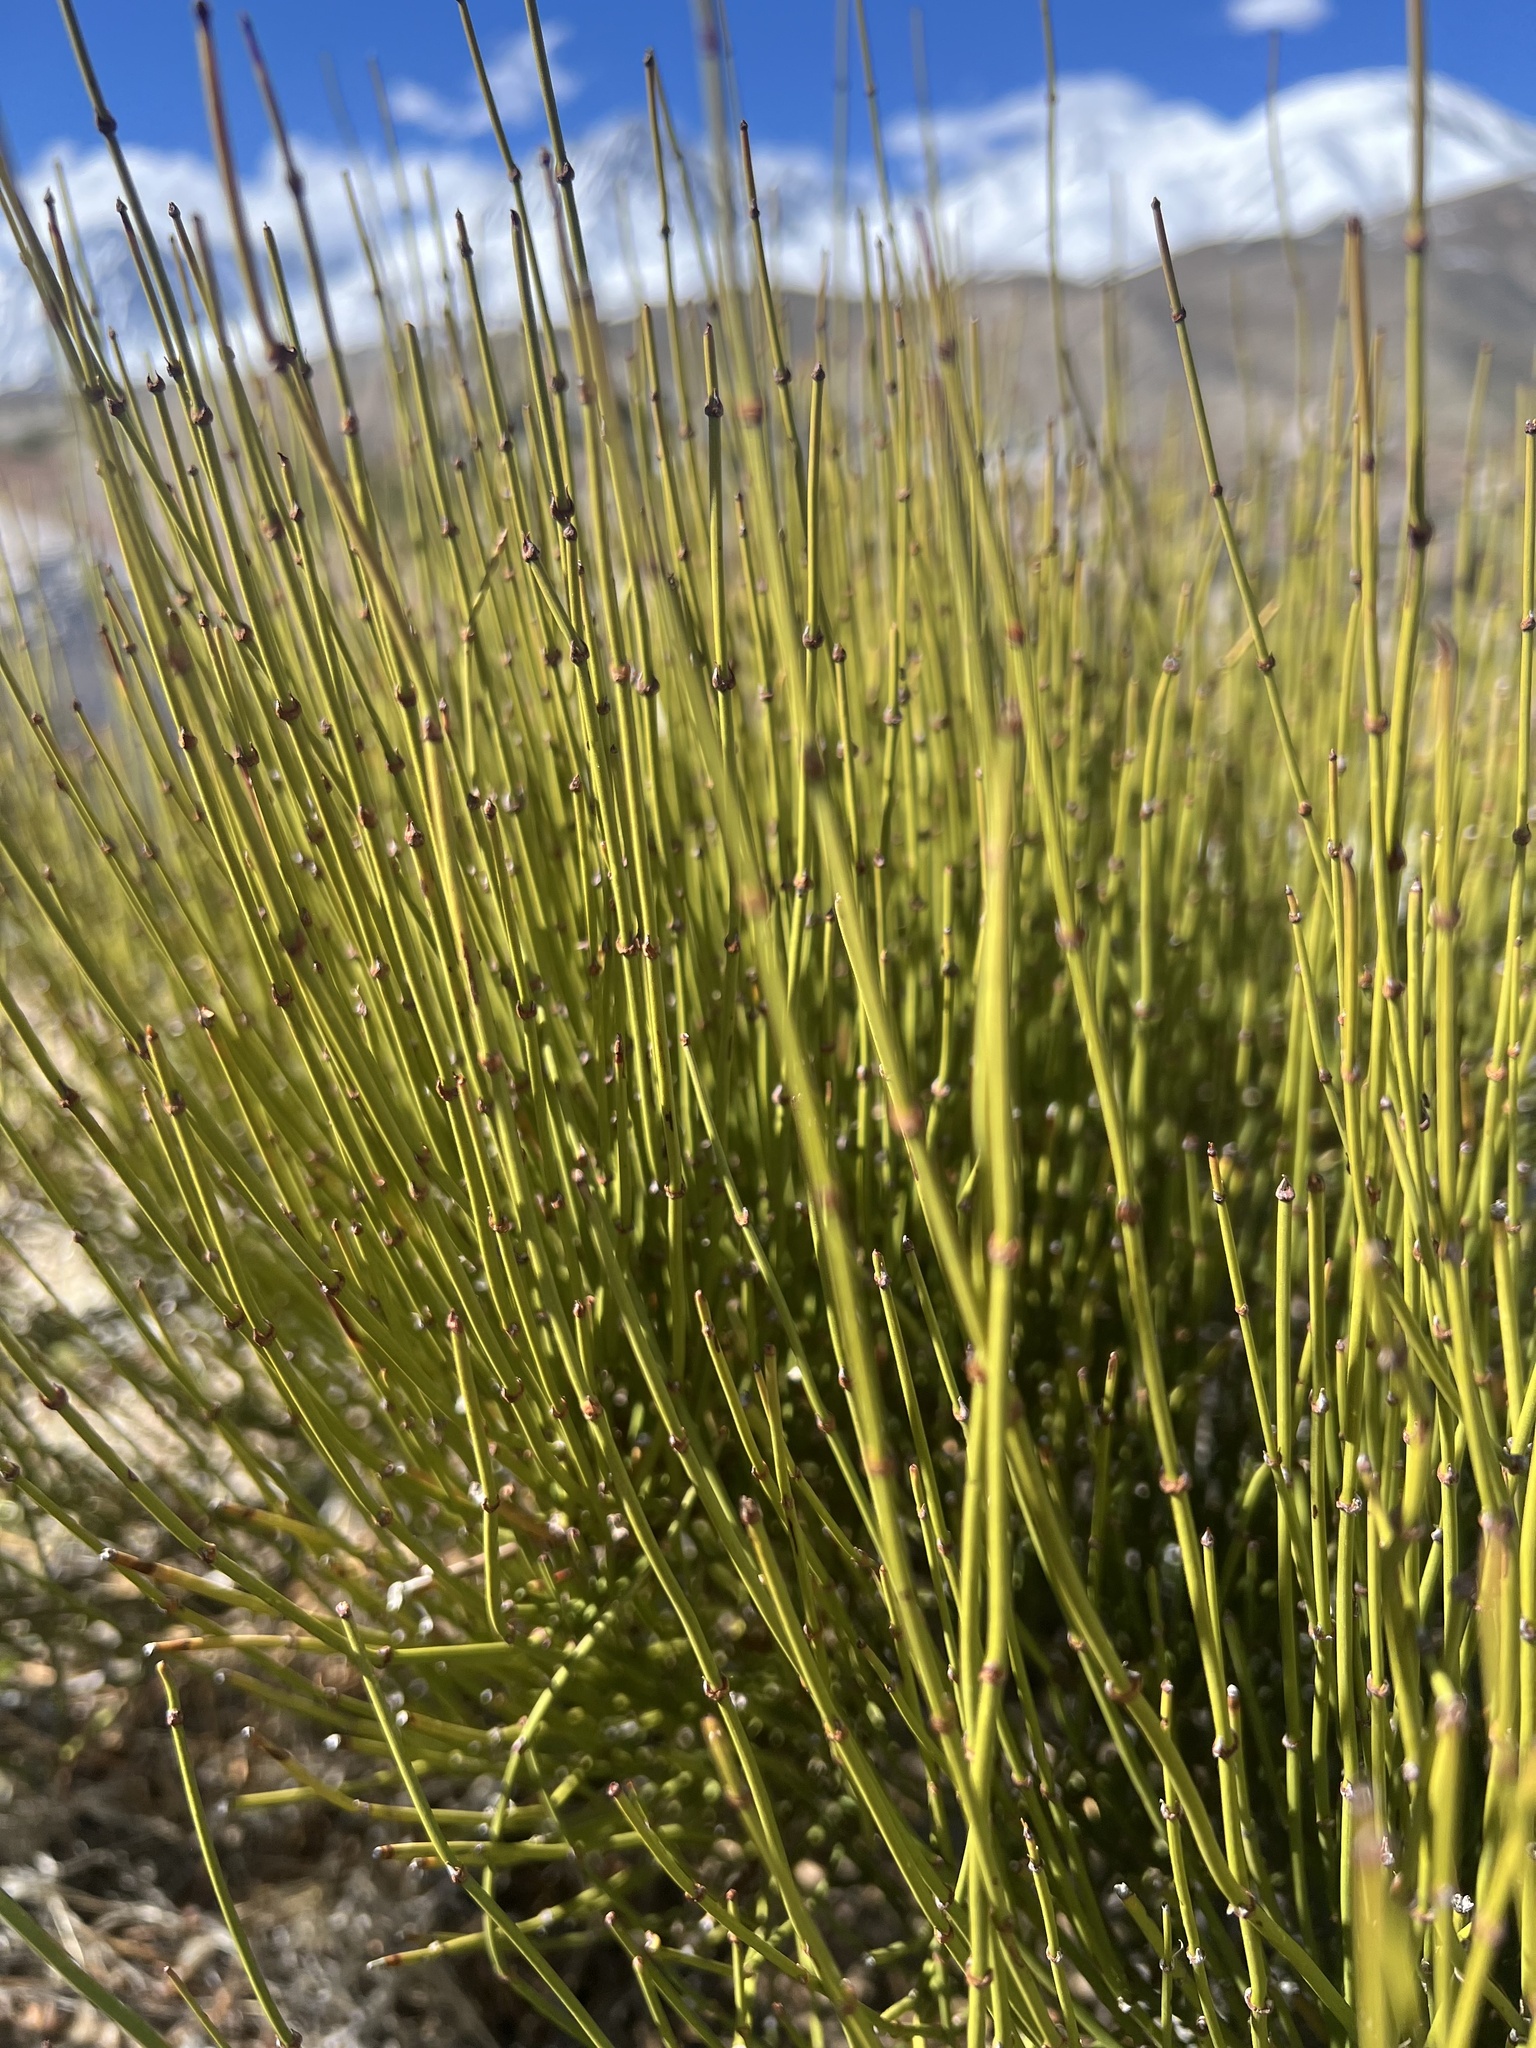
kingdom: Plantae
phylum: Tracheophyta
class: Gnetopsida
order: Ephedrales
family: Ephedraceae
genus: Ephedra
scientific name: Ephedra viridis
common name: Green ephedra
